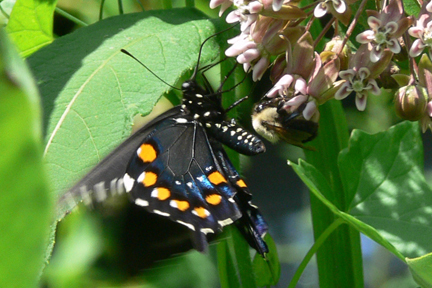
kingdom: Animalia
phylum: Arthropoda
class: Insecta
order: Lepidoptera
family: Papilionidae
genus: Battus
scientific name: Battus philenor
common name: Pipevine swallowtail
